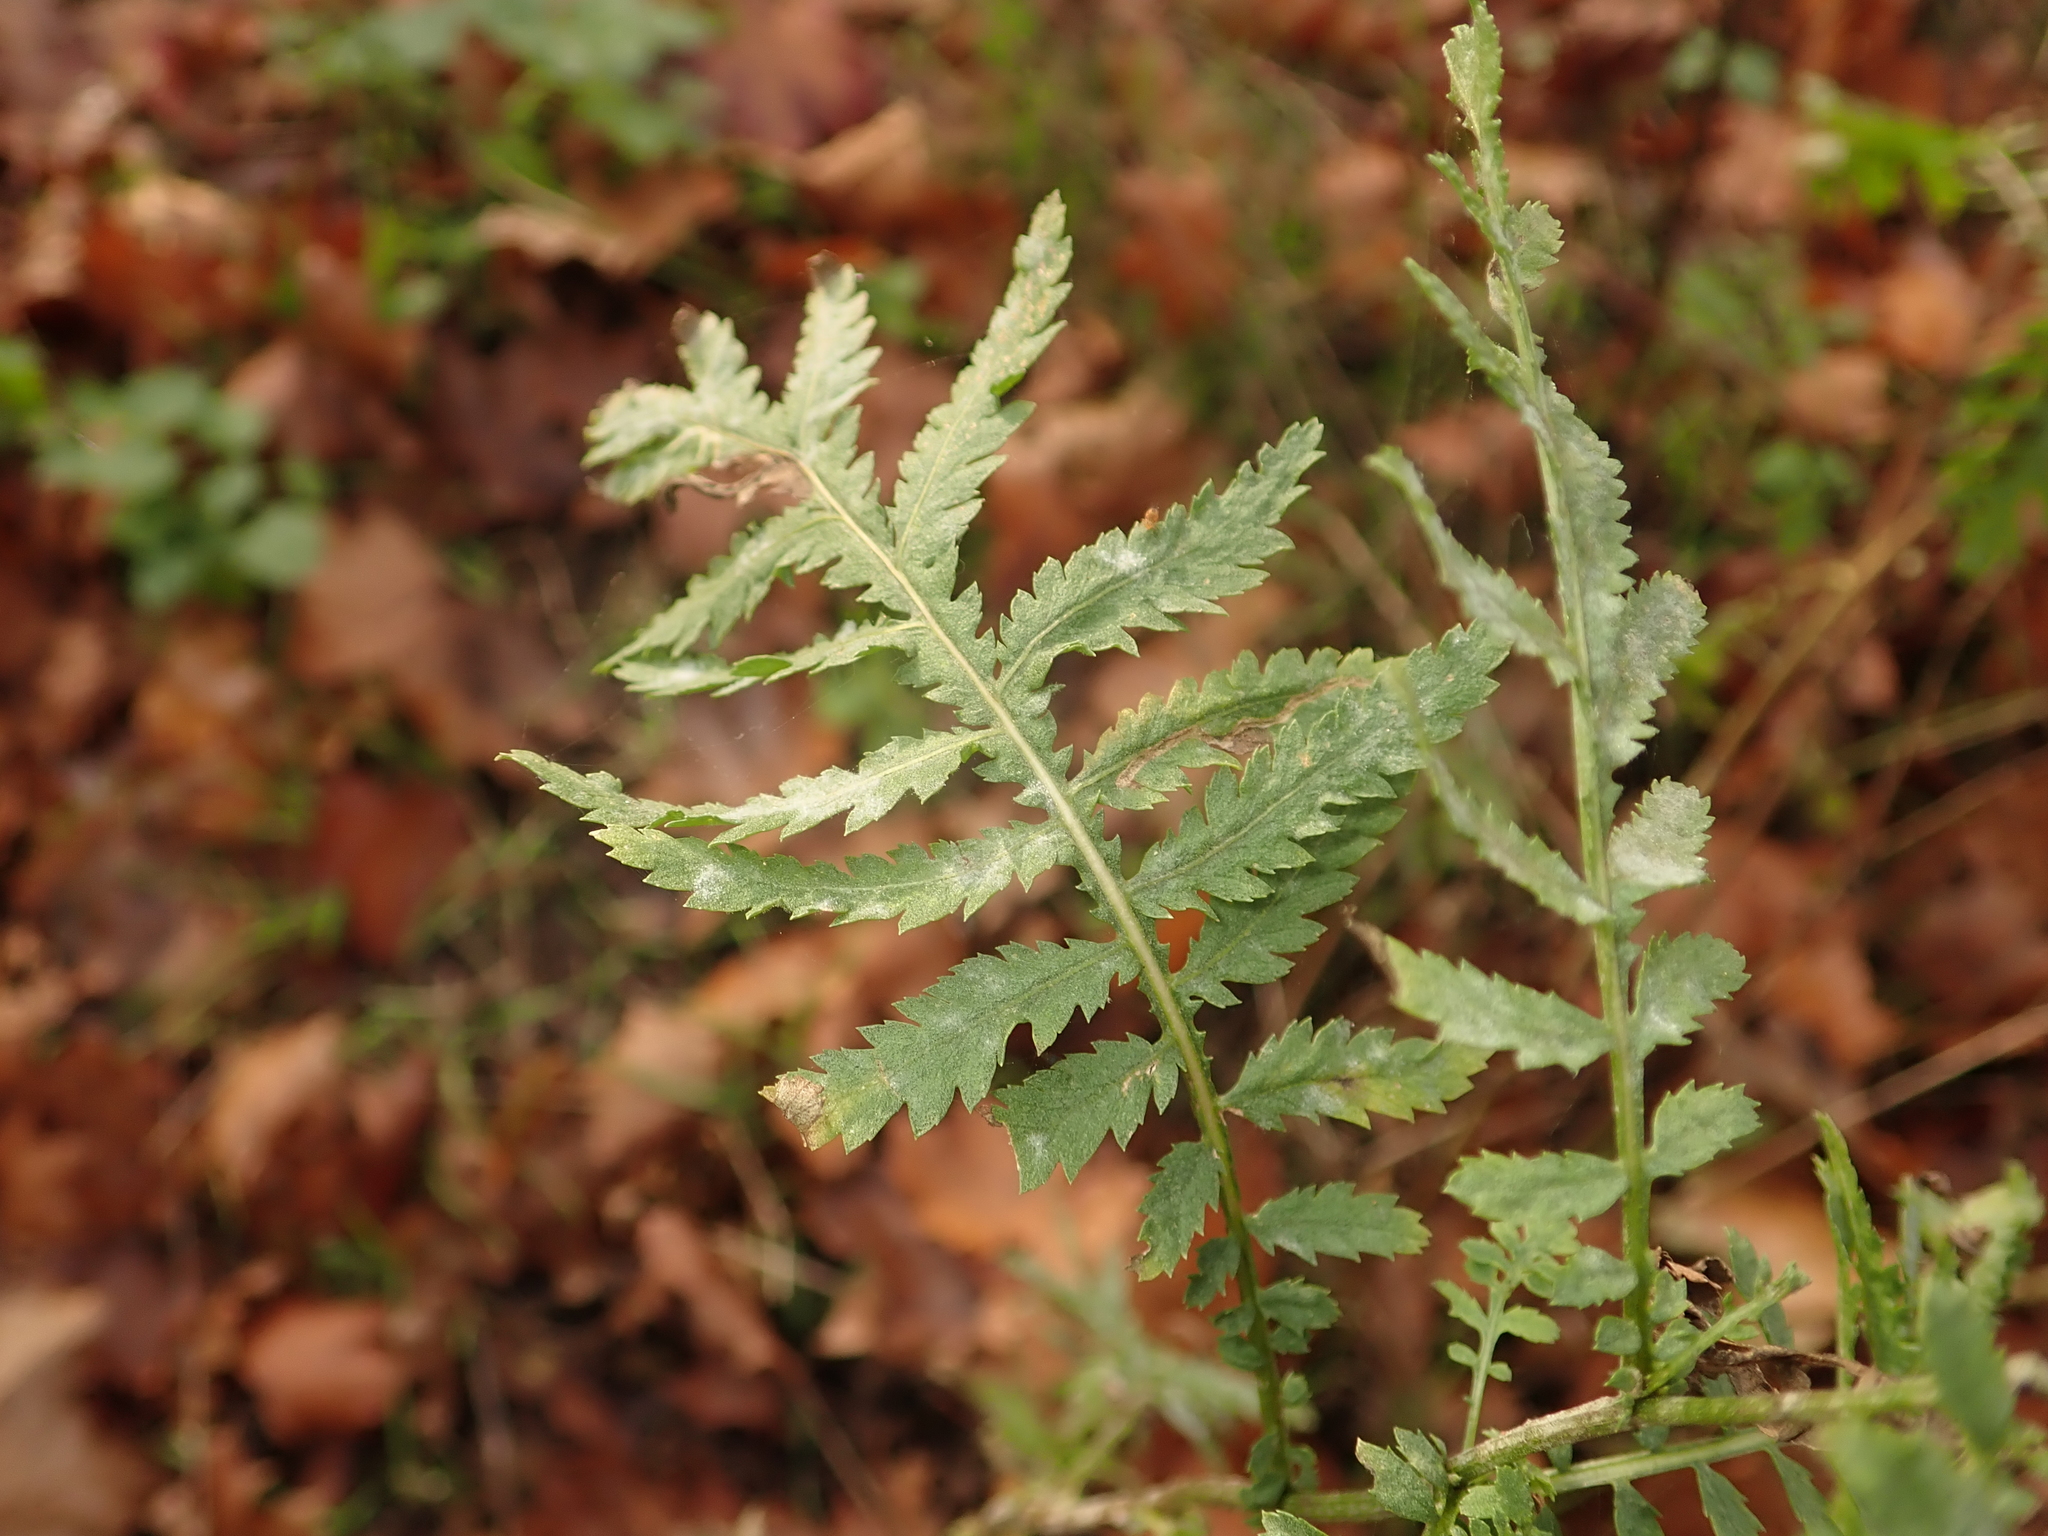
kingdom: Plantae
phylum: Tracheophyta
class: Magnoliopsida
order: Asterales
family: Asteraceae
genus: Tanacetum
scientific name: Tanacetum vulgare
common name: Common tansy
